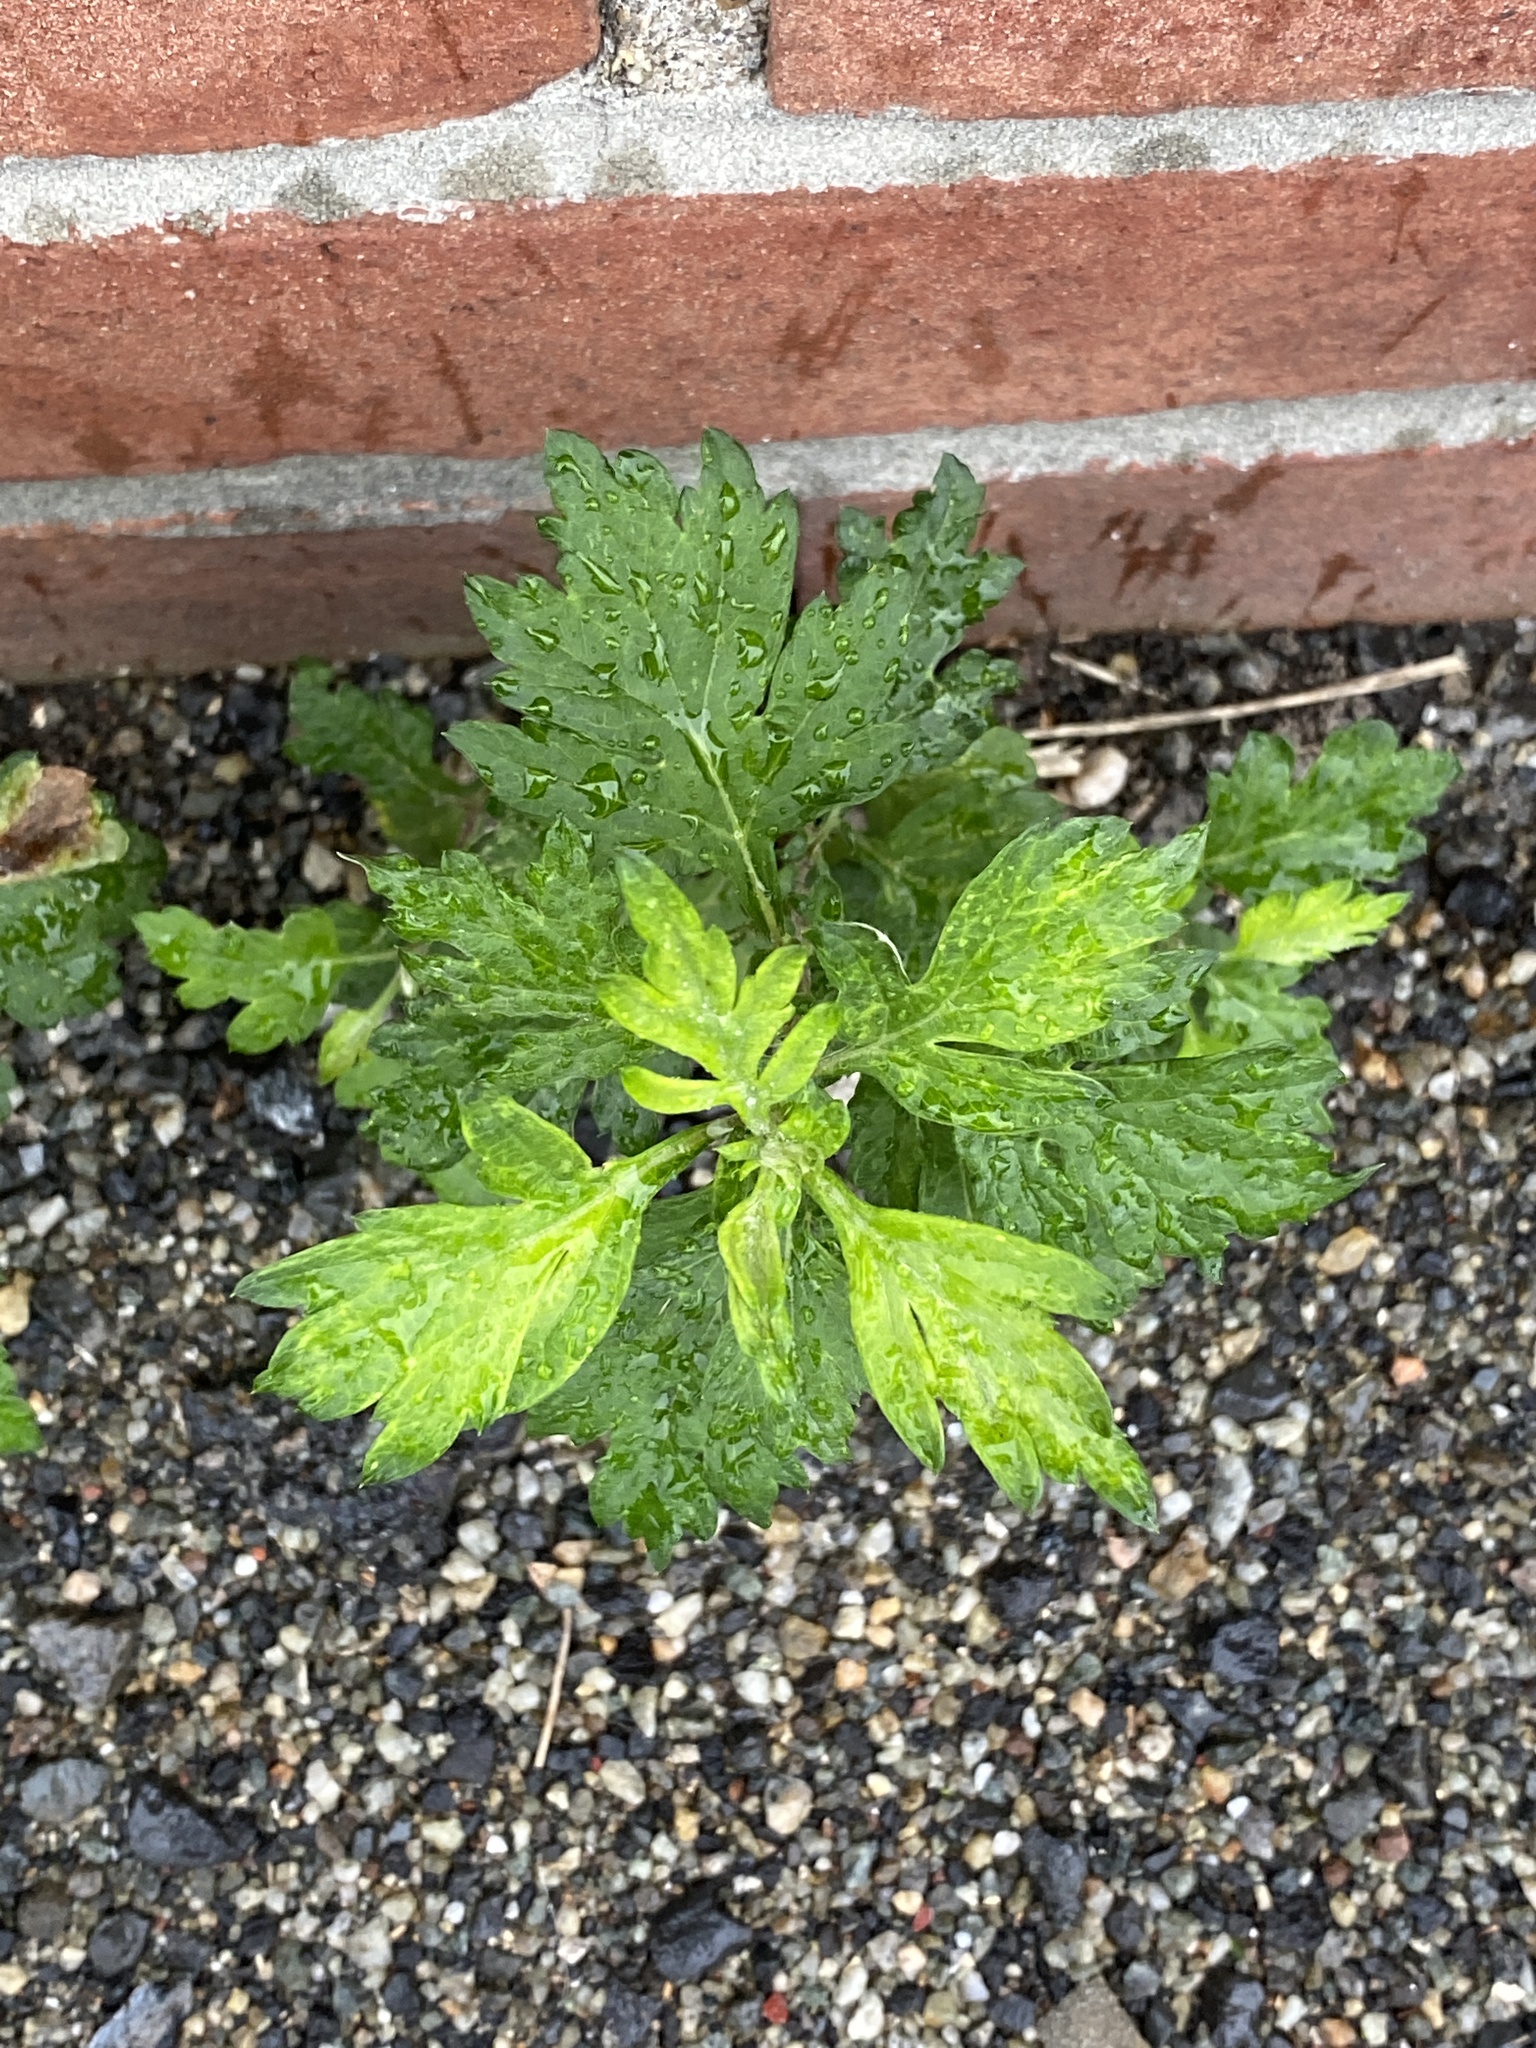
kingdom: Plantae
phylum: Tracheophyta
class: Magnoliopsida
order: Asterales
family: Asteraceae
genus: Artemisia
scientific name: Artemisia vulgaris
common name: Mugwort
